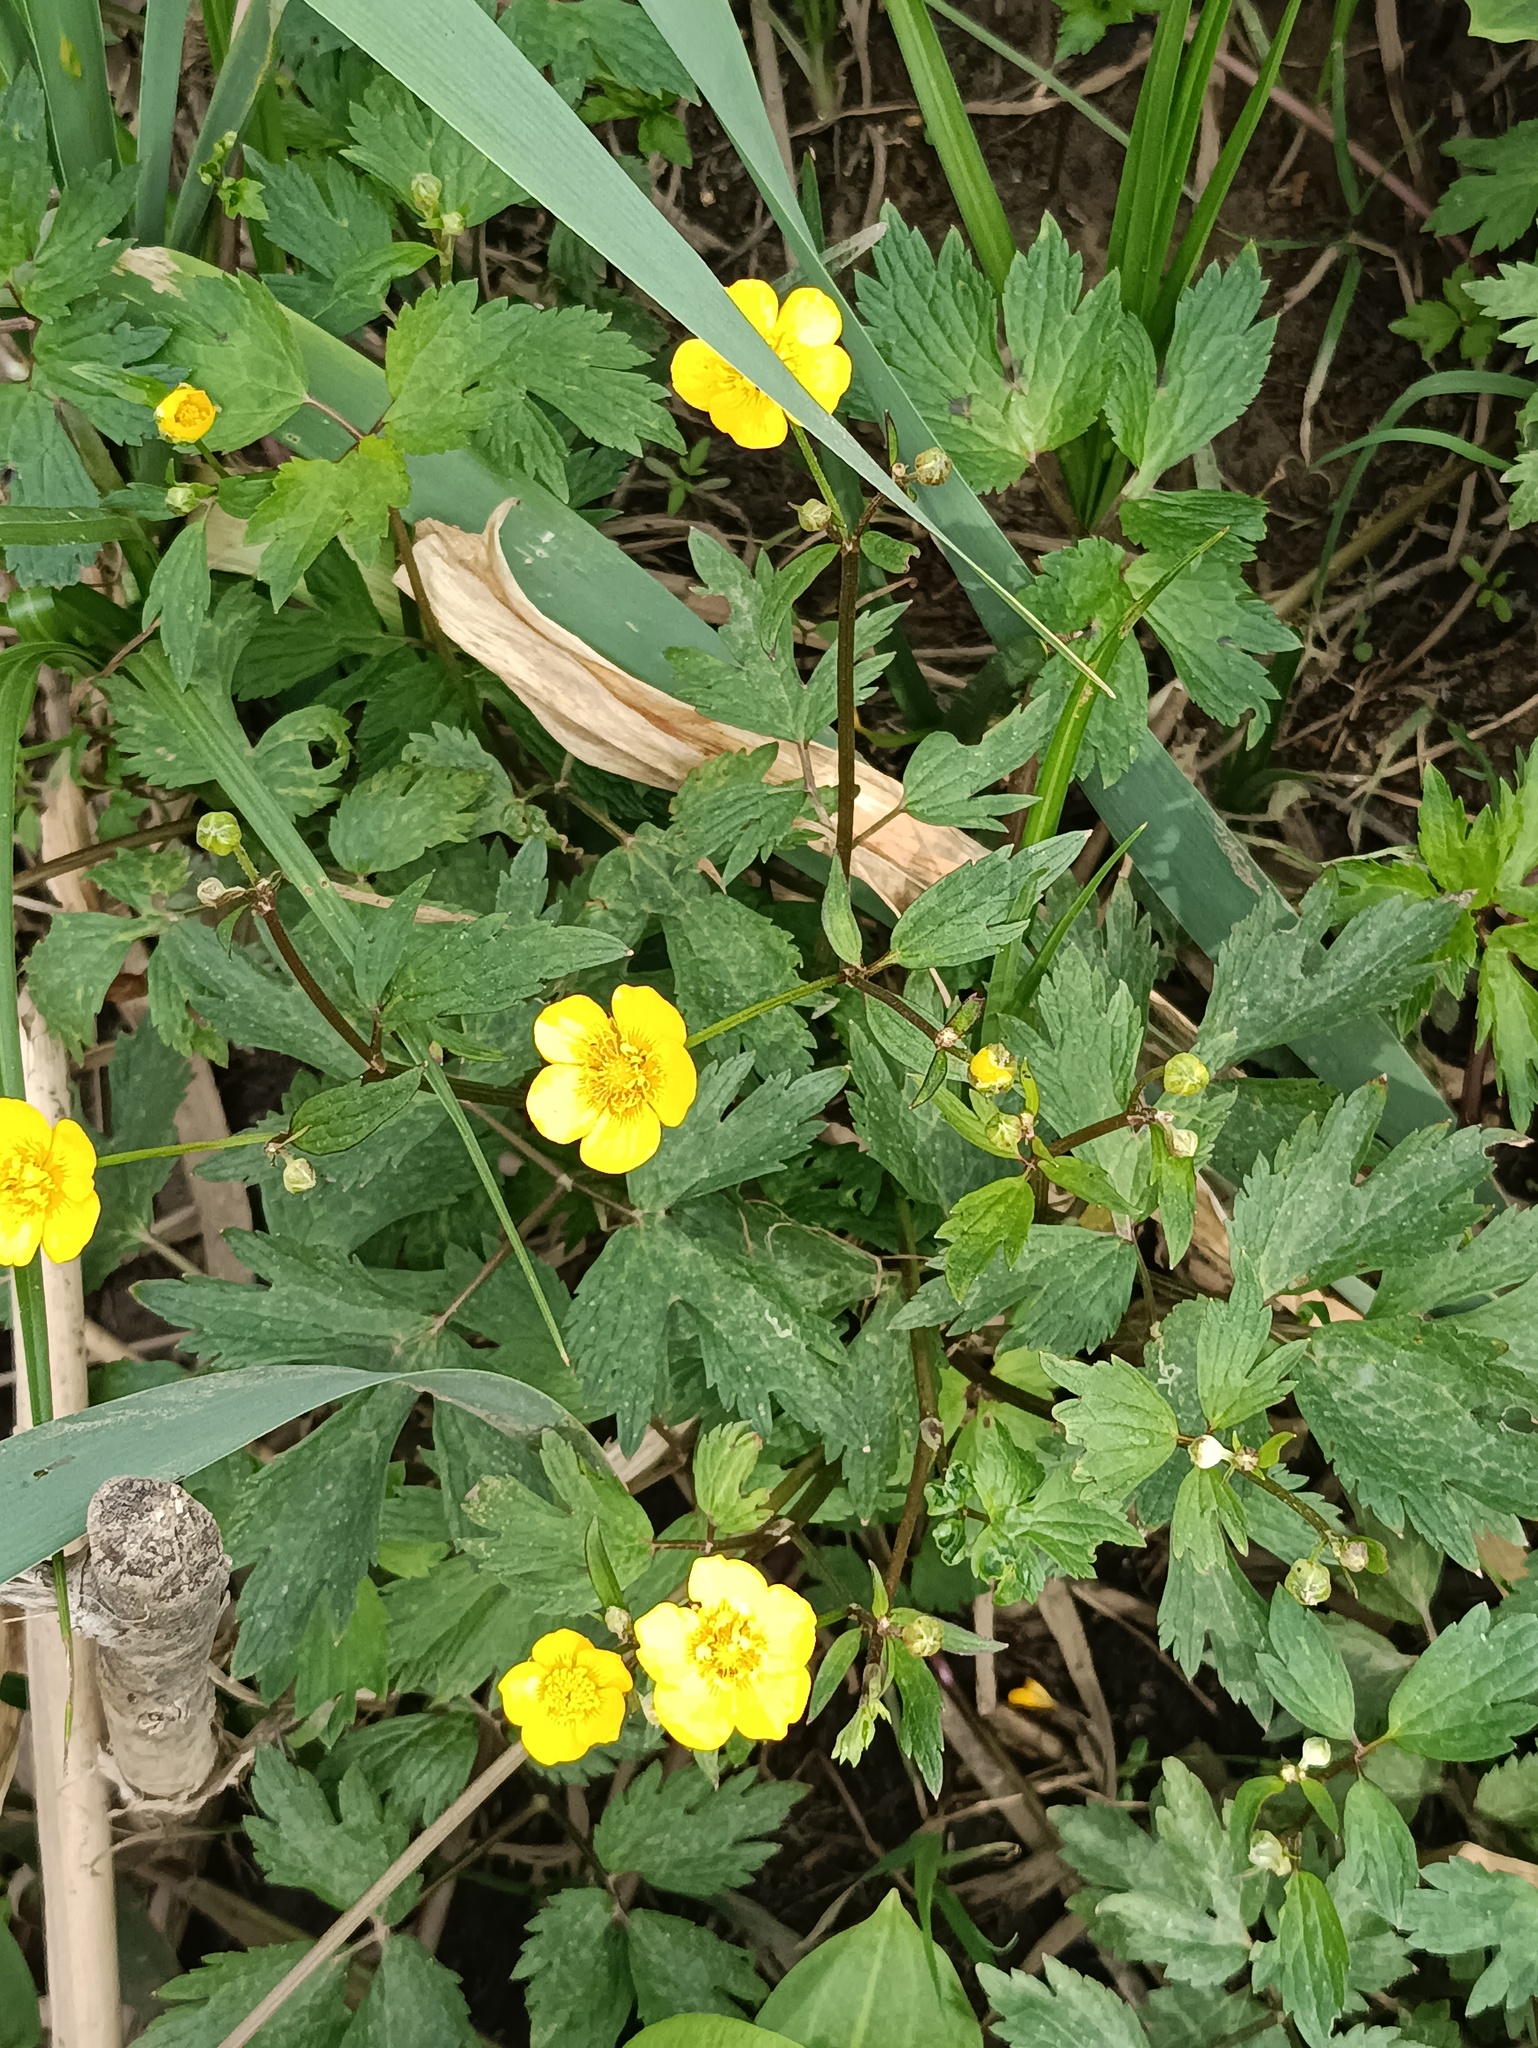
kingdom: Plantae
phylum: Tracheophyta
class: Magnoliopsida
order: Ranunculales
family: Ranunculaceae
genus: Ranunculus
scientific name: Ranunculus repens
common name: Creeping buttercup
